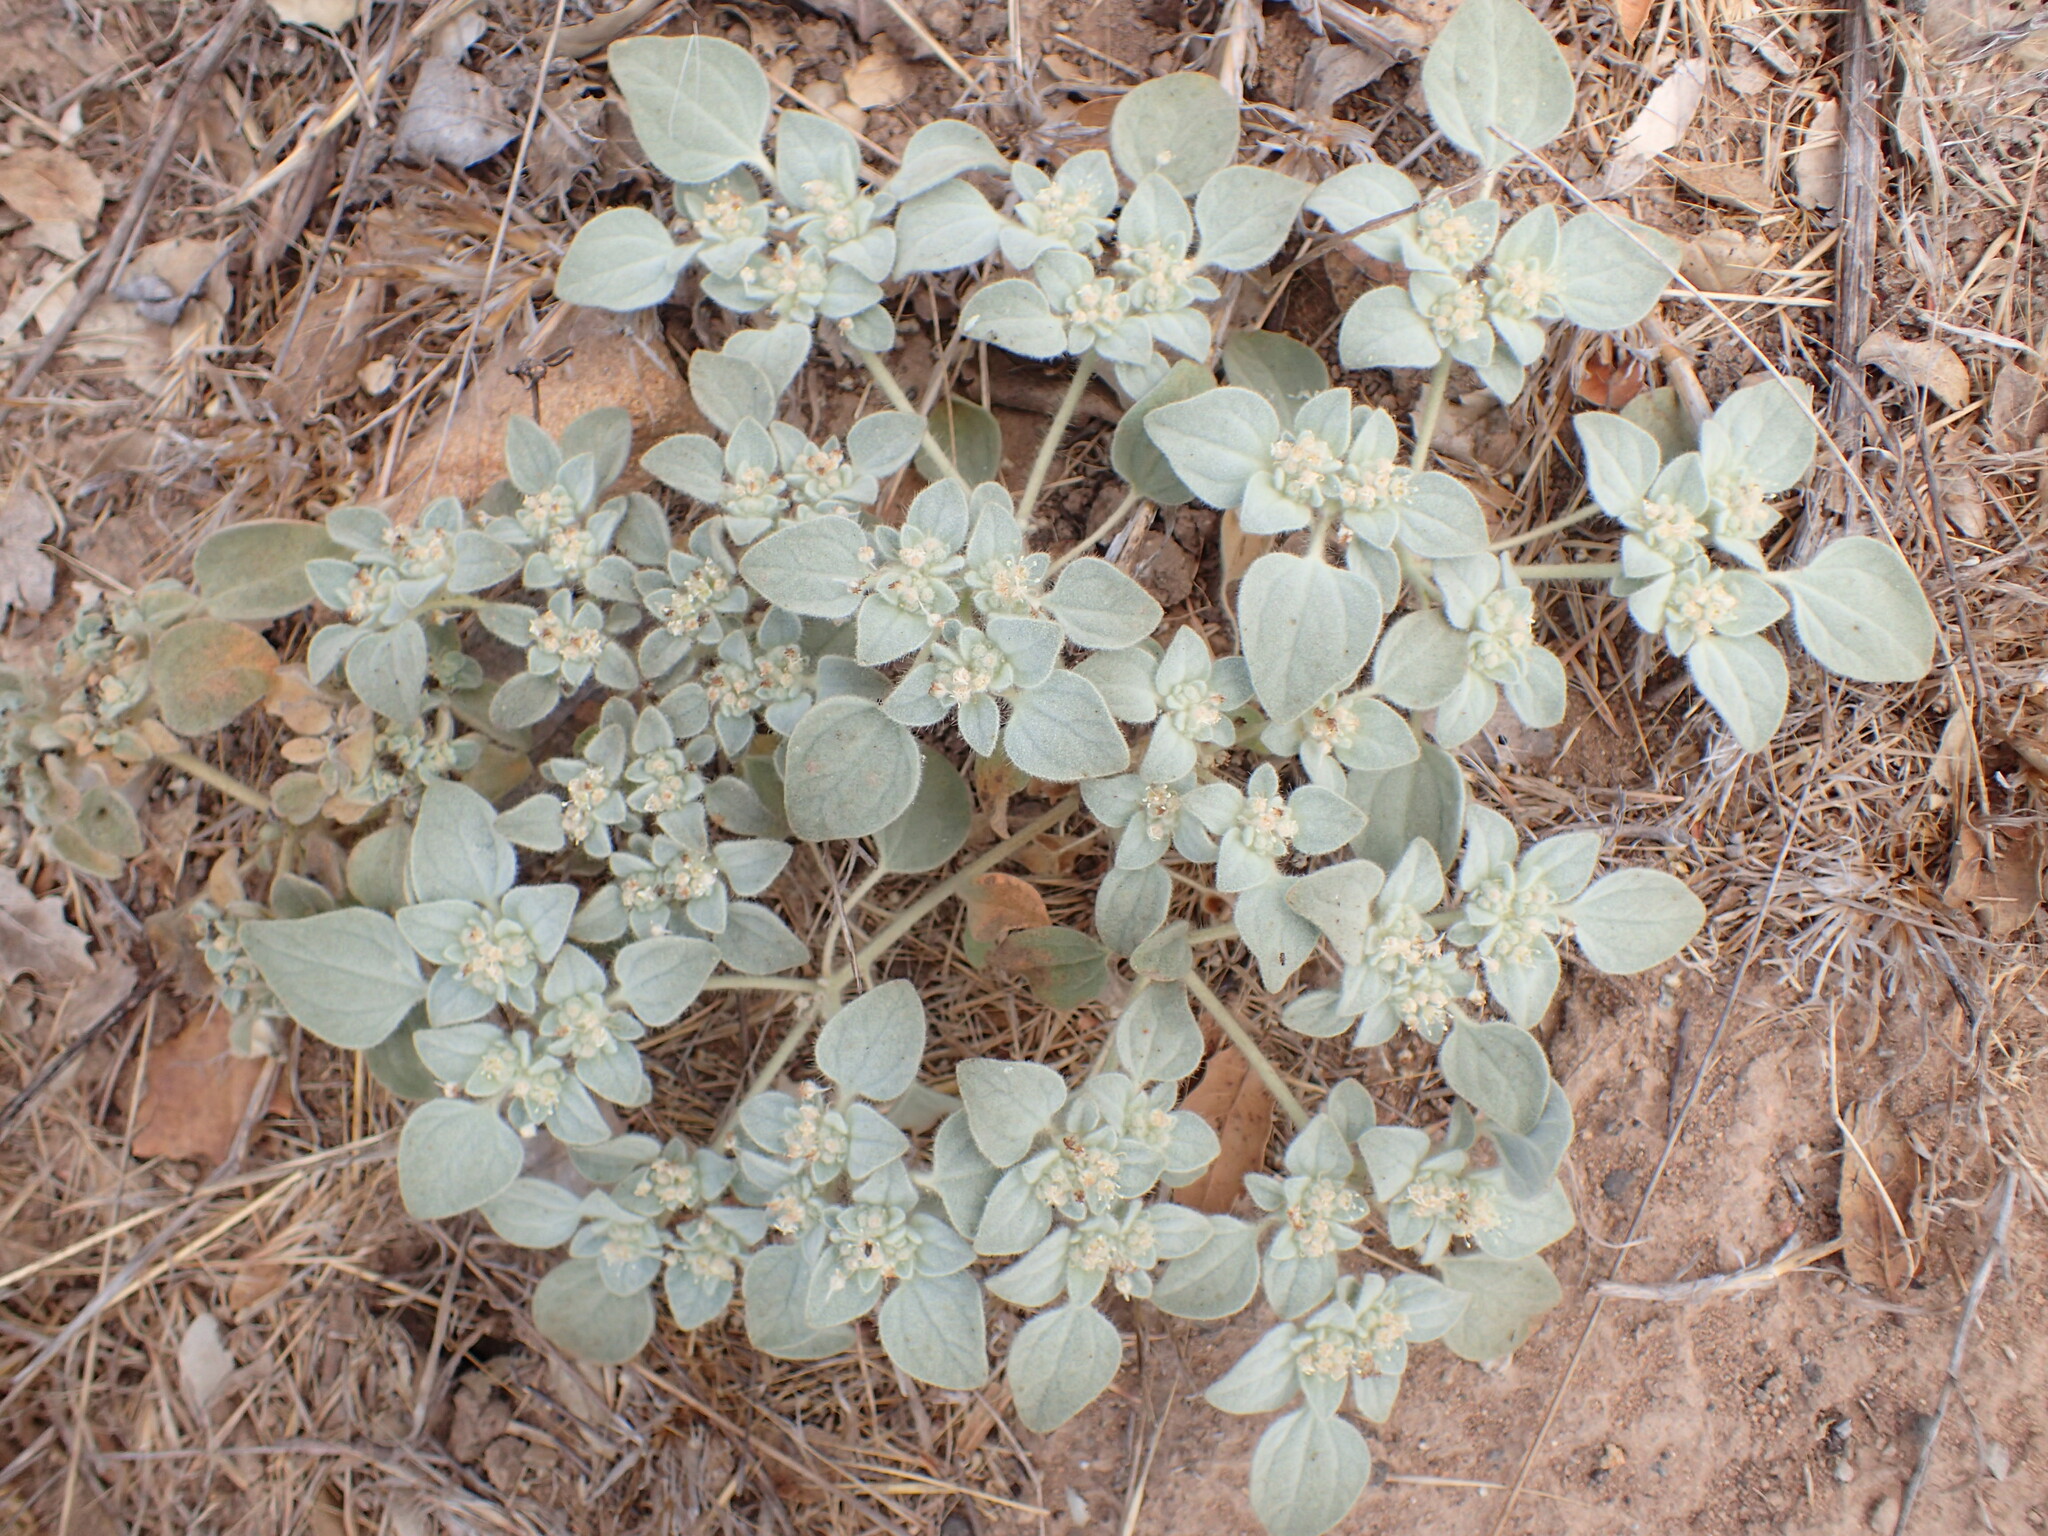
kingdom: Plantae
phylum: Tracheophyta
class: Magnoliopsida
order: Malpighiales
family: Euphorbiaceae
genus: Croton
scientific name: Croton setiger
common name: Dove weed
